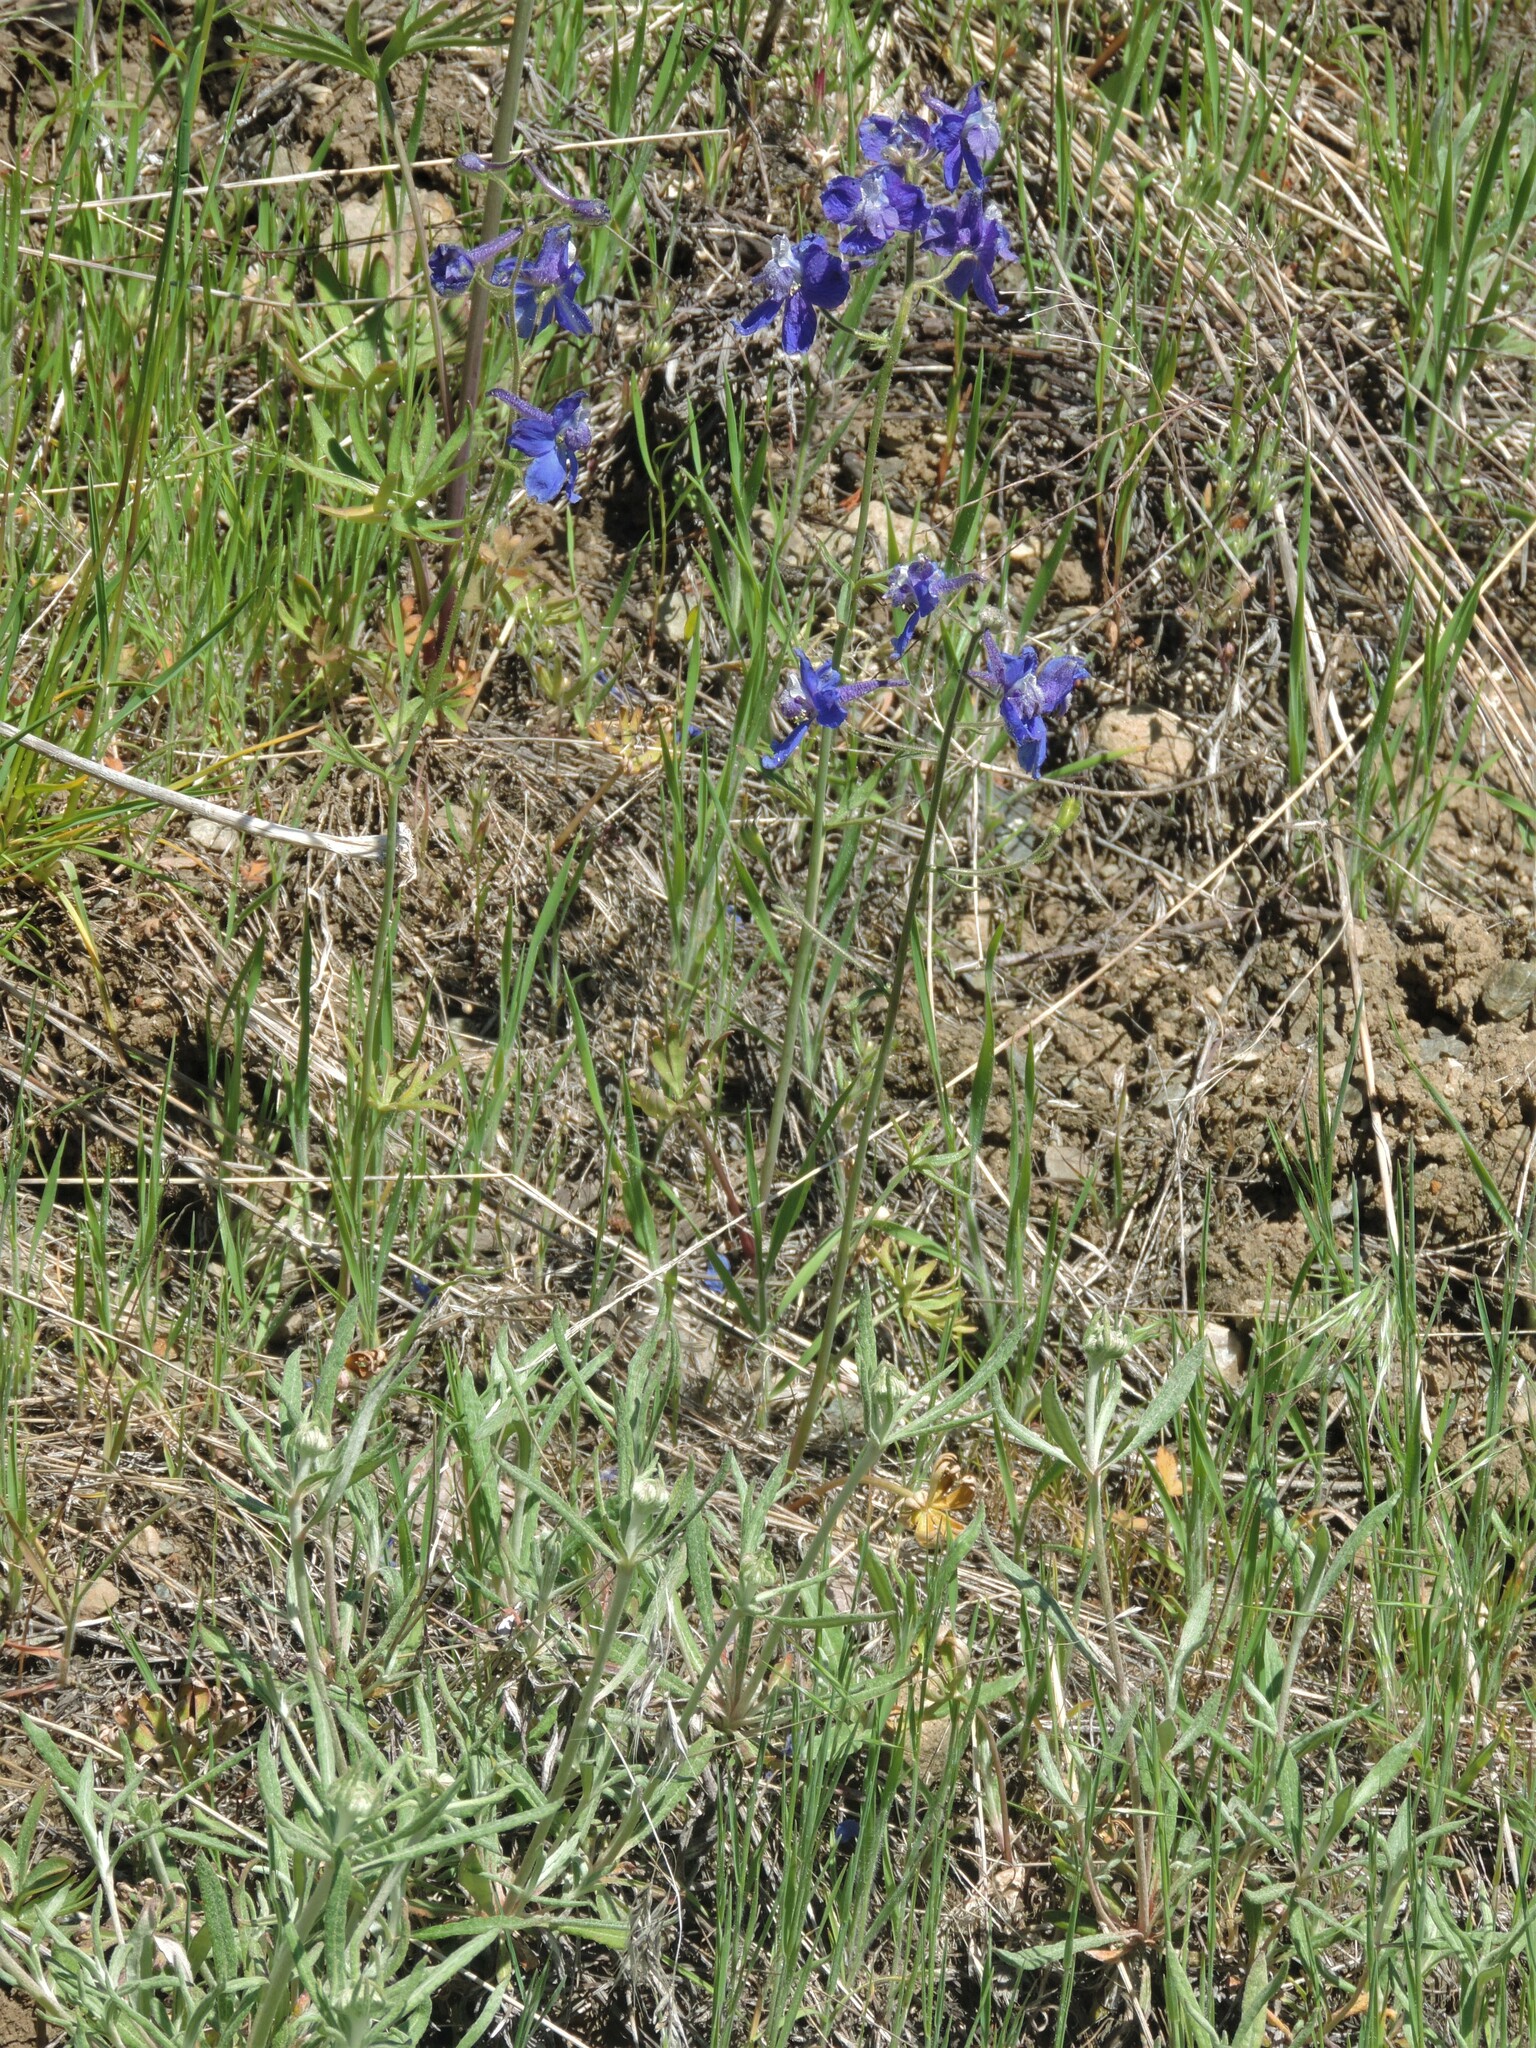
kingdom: Plantae
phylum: Tracheophyta
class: Magnoliopsida
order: Ranunculales
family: Ranunculaceae
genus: Delphinium
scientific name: Delphinium nuttallianum
